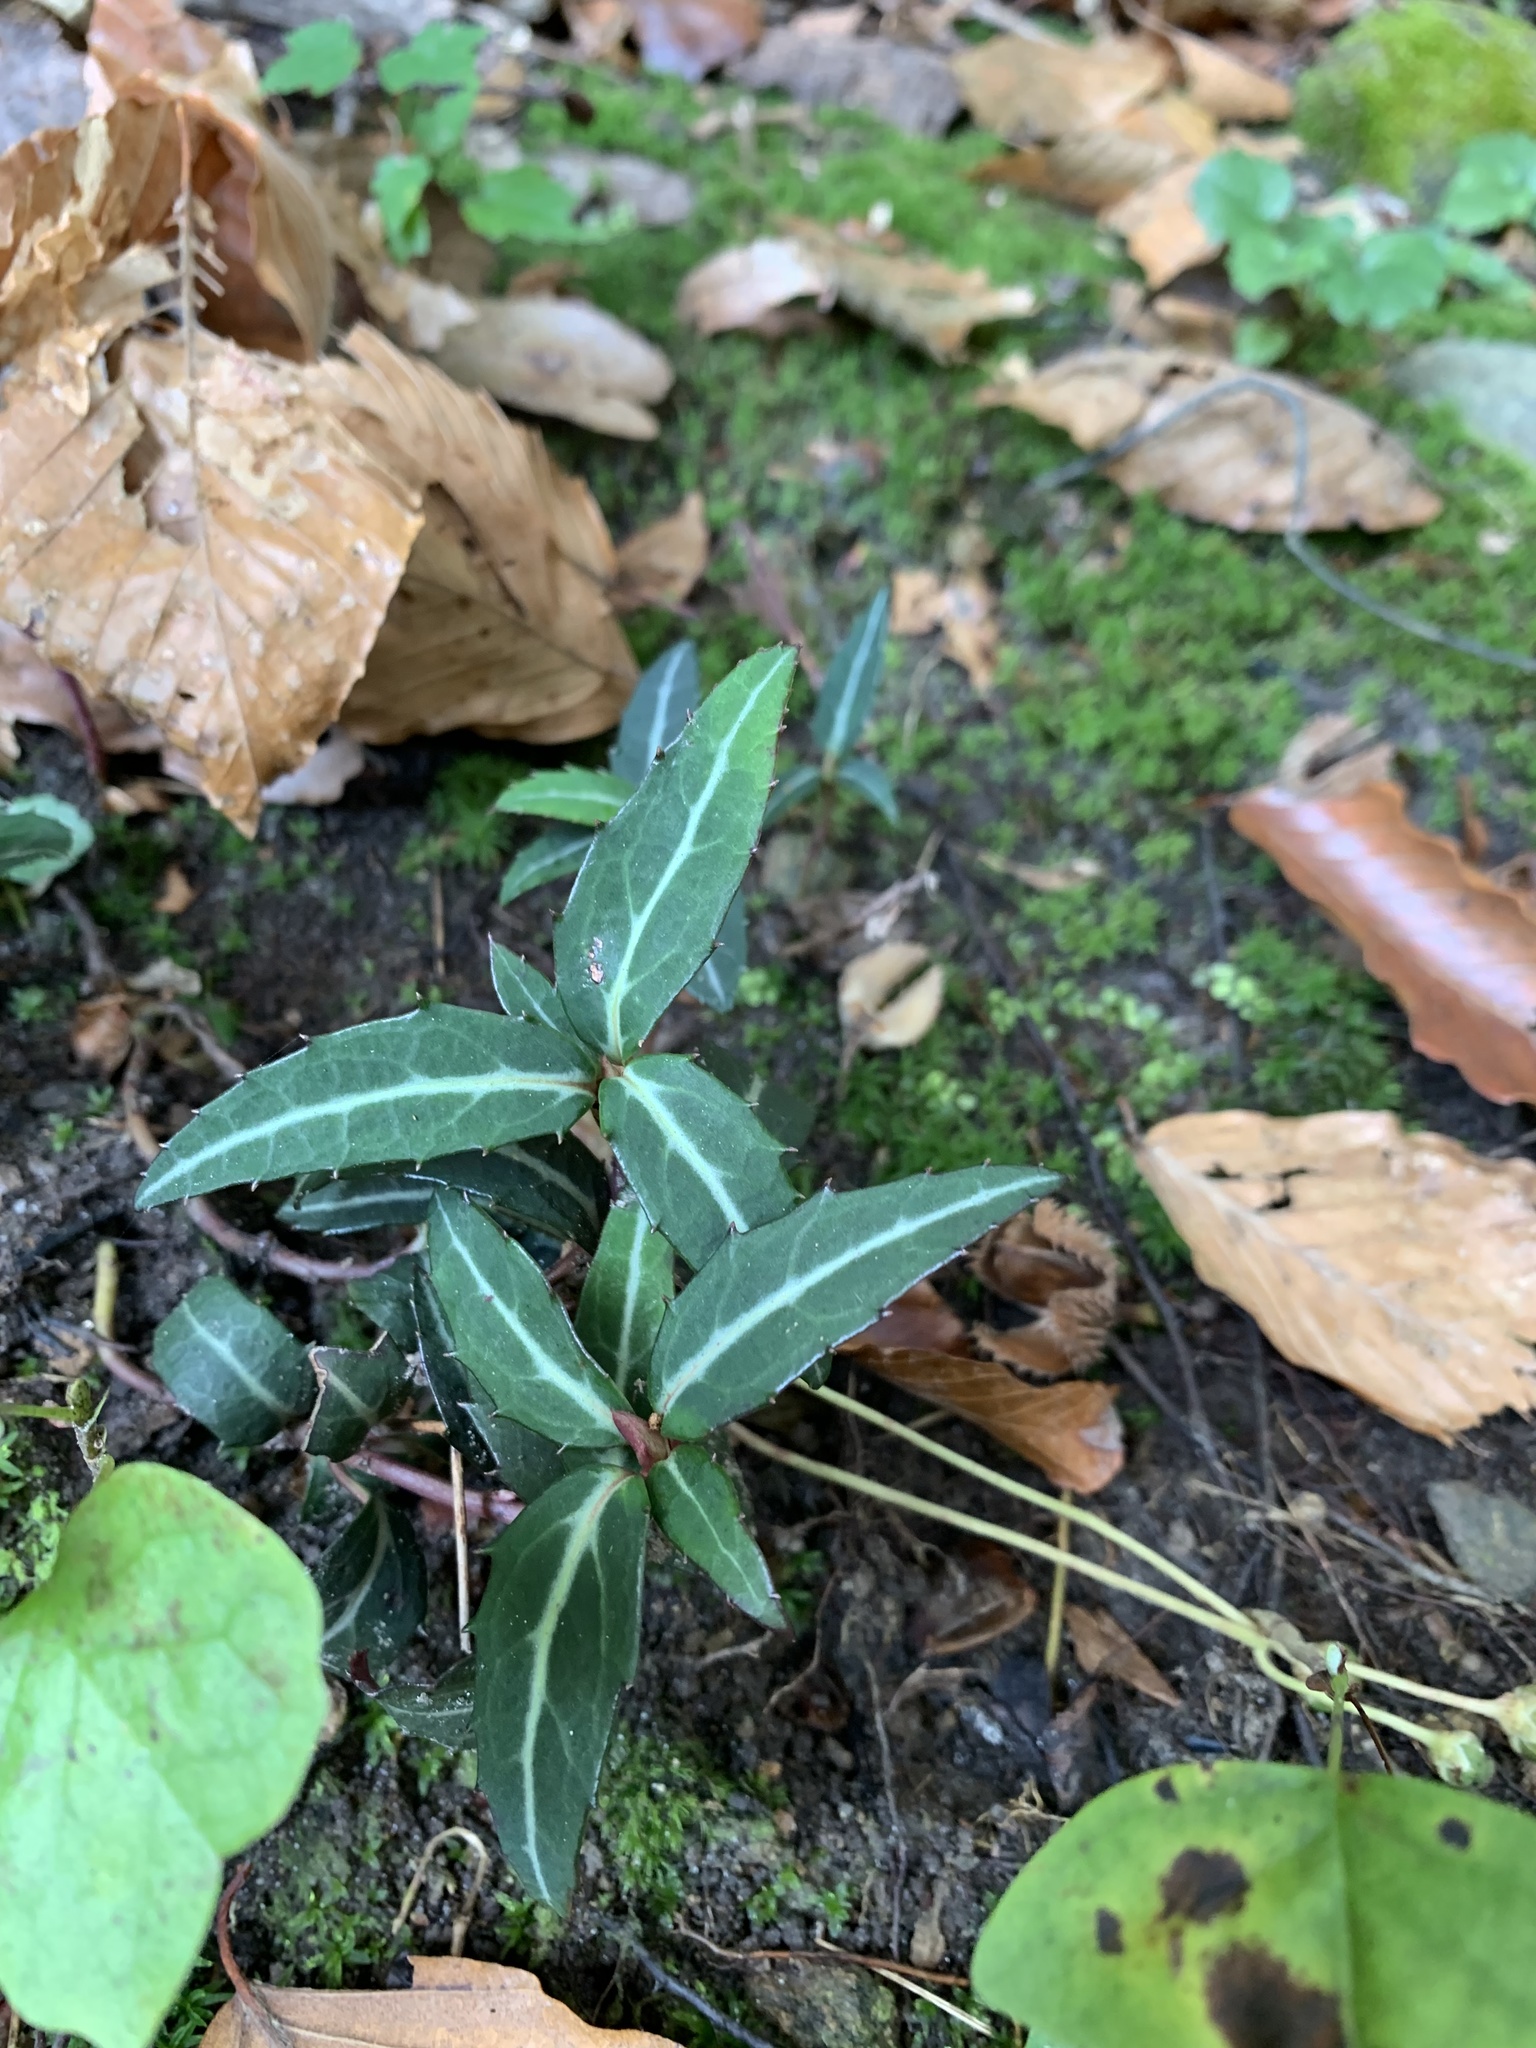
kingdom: Plantae
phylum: Tracheophyta
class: Magnoliopsida
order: Ericales
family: Ericaceae
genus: Chimaphila
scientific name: Chimaphila maculata
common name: Spotted pipsissewa
